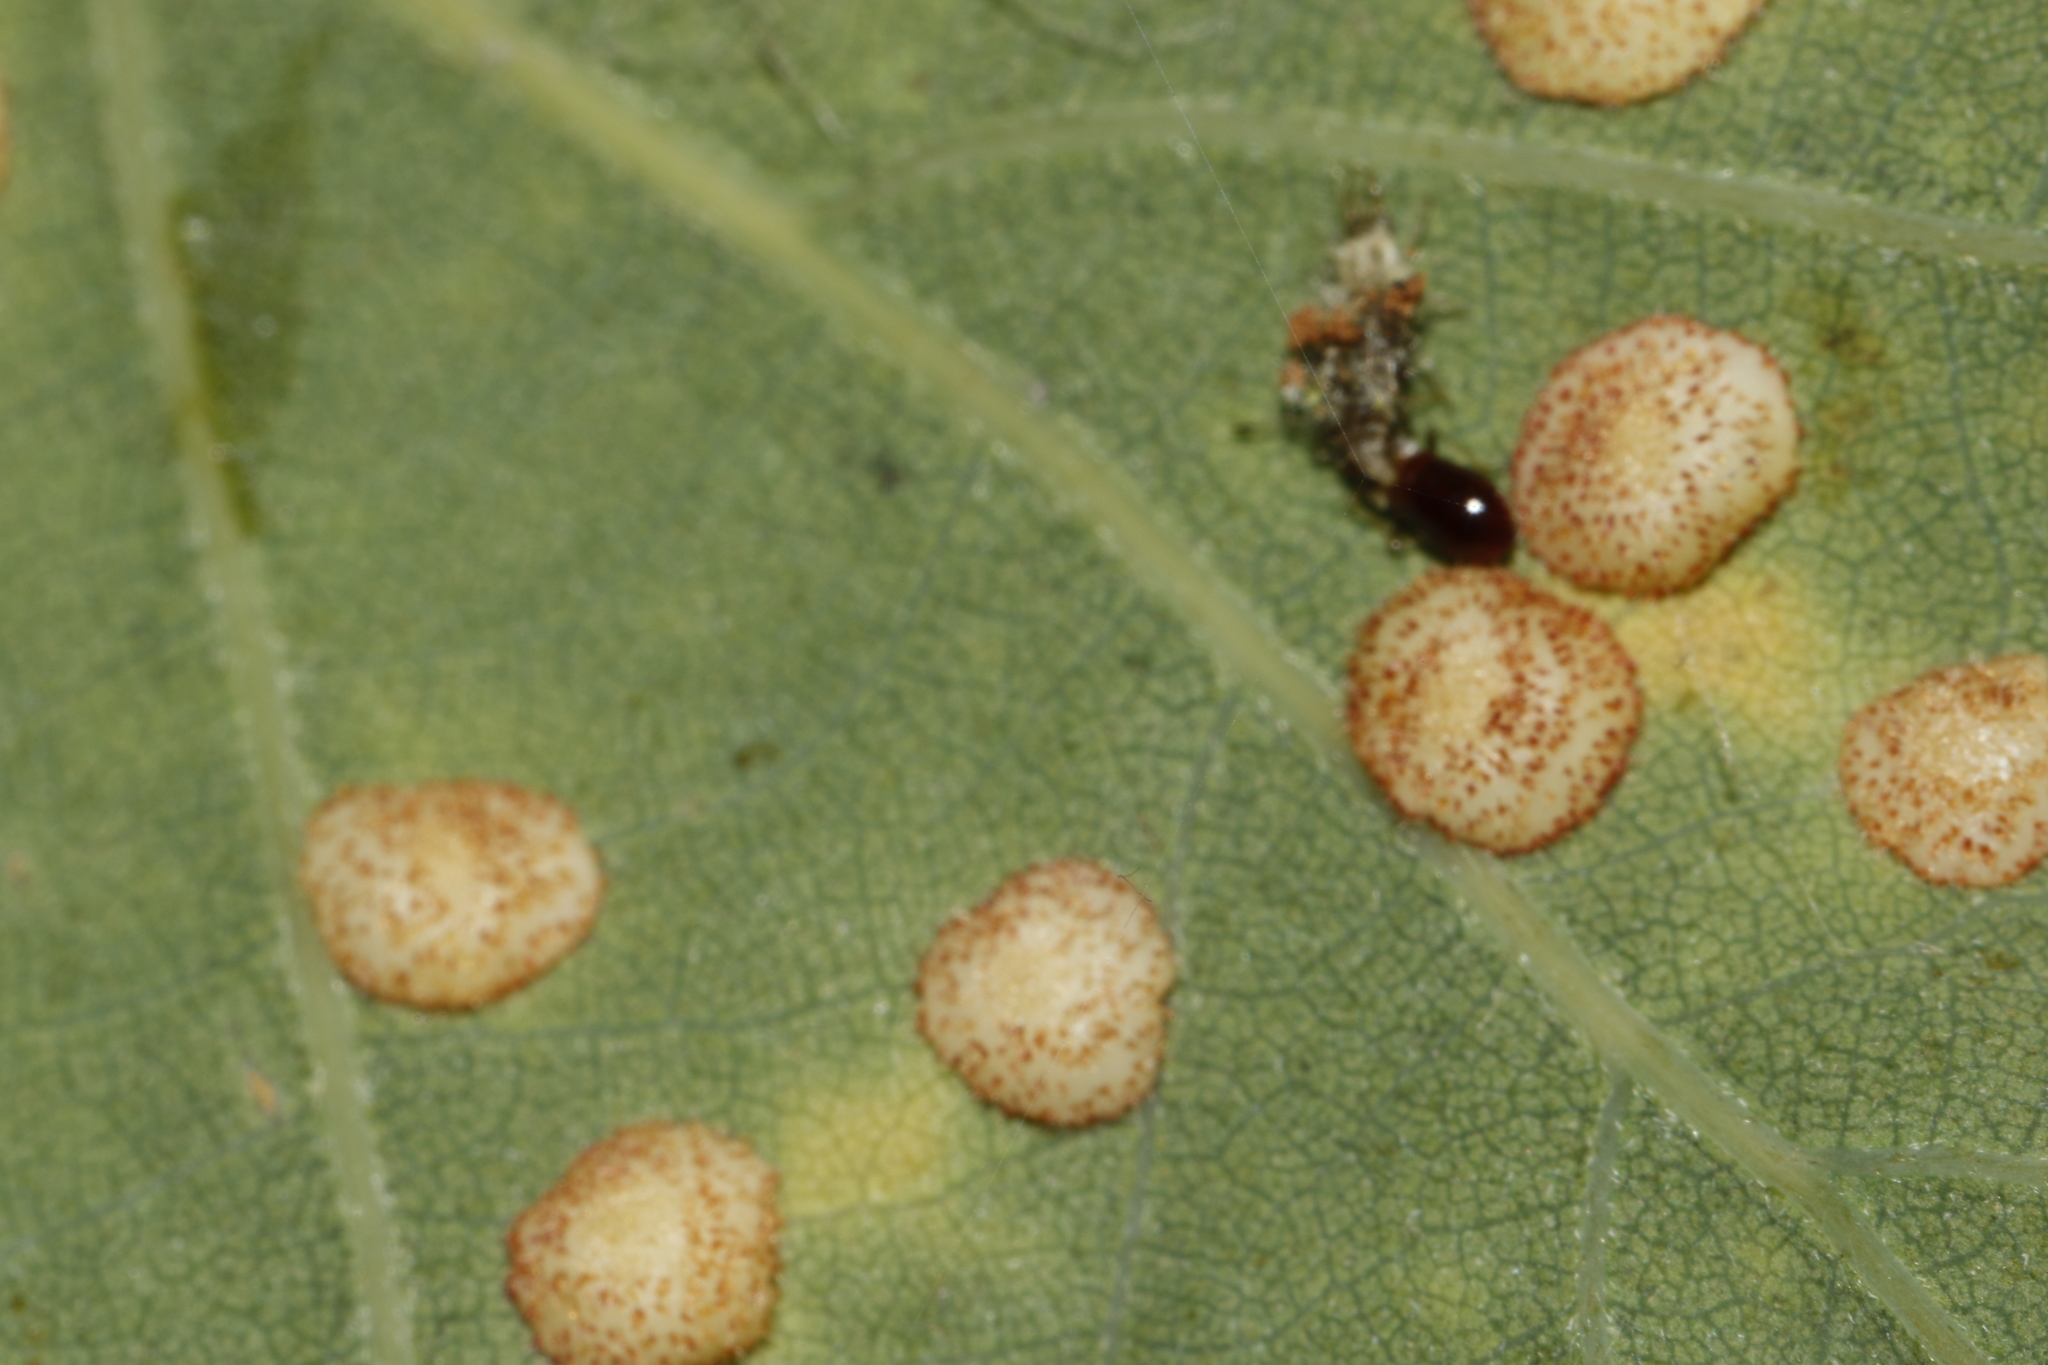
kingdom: Animalia
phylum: Arthropoda
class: Insecta
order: Hymenoptera
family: Cynipidae
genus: Neuroterus
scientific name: Neuroterus quercusbaccarum
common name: Common spangle gall
